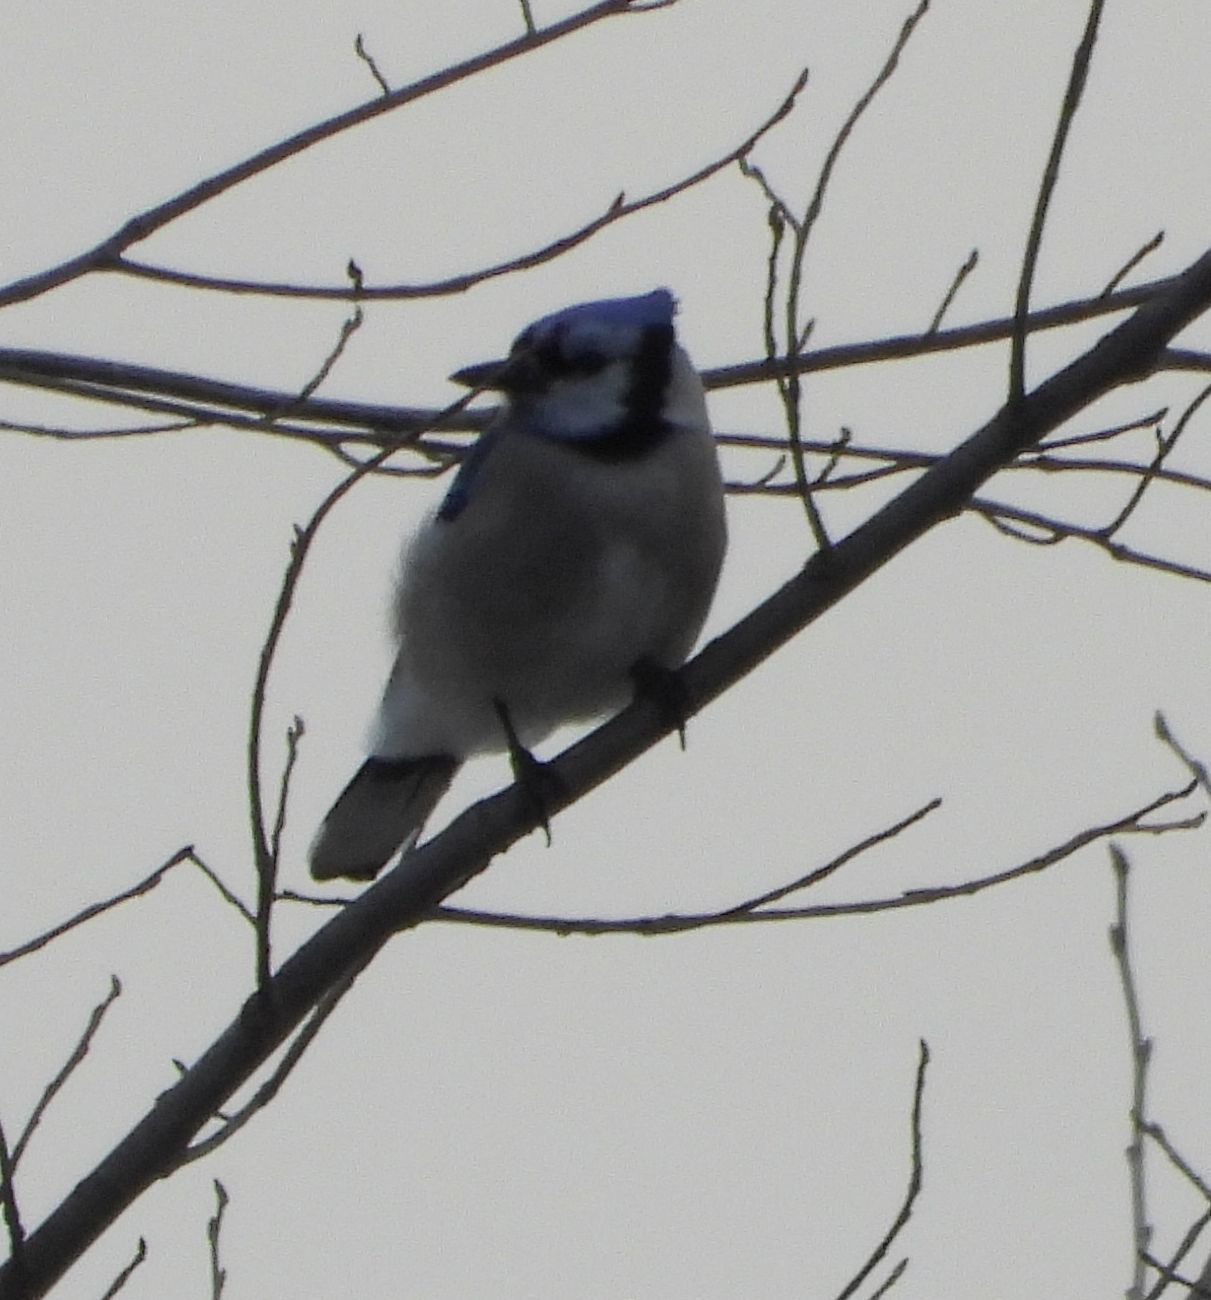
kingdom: Animalia
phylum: Chordata
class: Aves
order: Passeriformes
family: Corvidae
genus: Cyanocitta
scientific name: Cyanocitta cristata
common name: Blue jay
